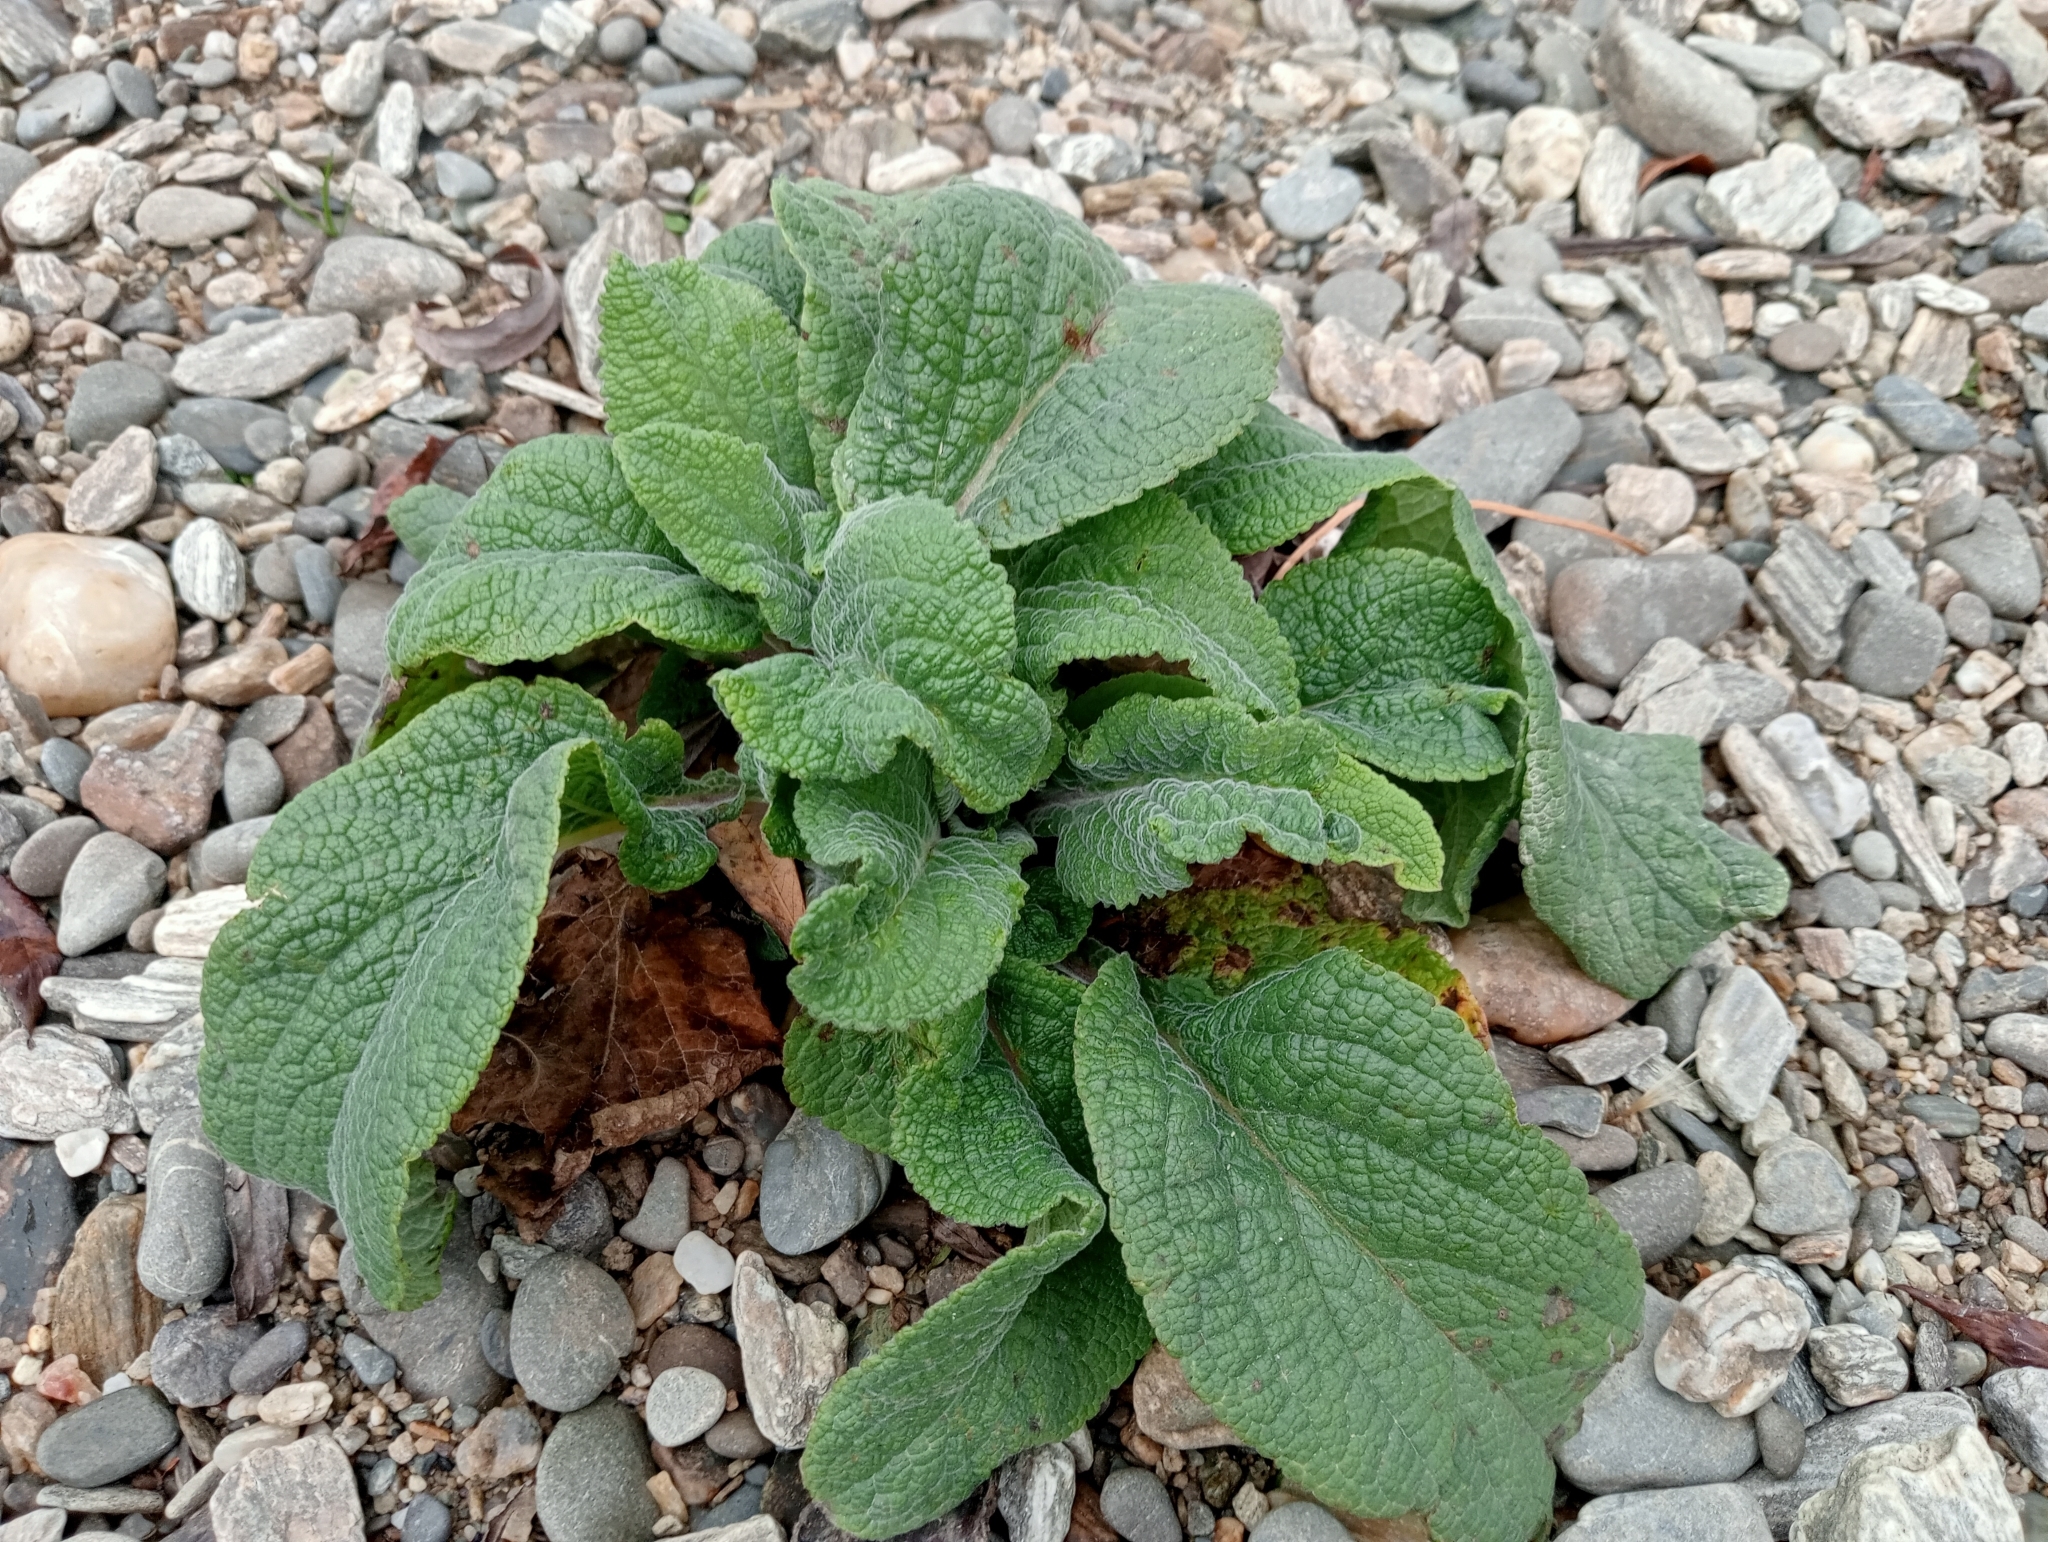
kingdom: Plantae
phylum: Tracheophyta
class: Magnoliopsida
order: Lamiales
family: Plantaginaceae
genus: Digitalis
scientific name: Digitalis purpurea
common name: Foxglove
